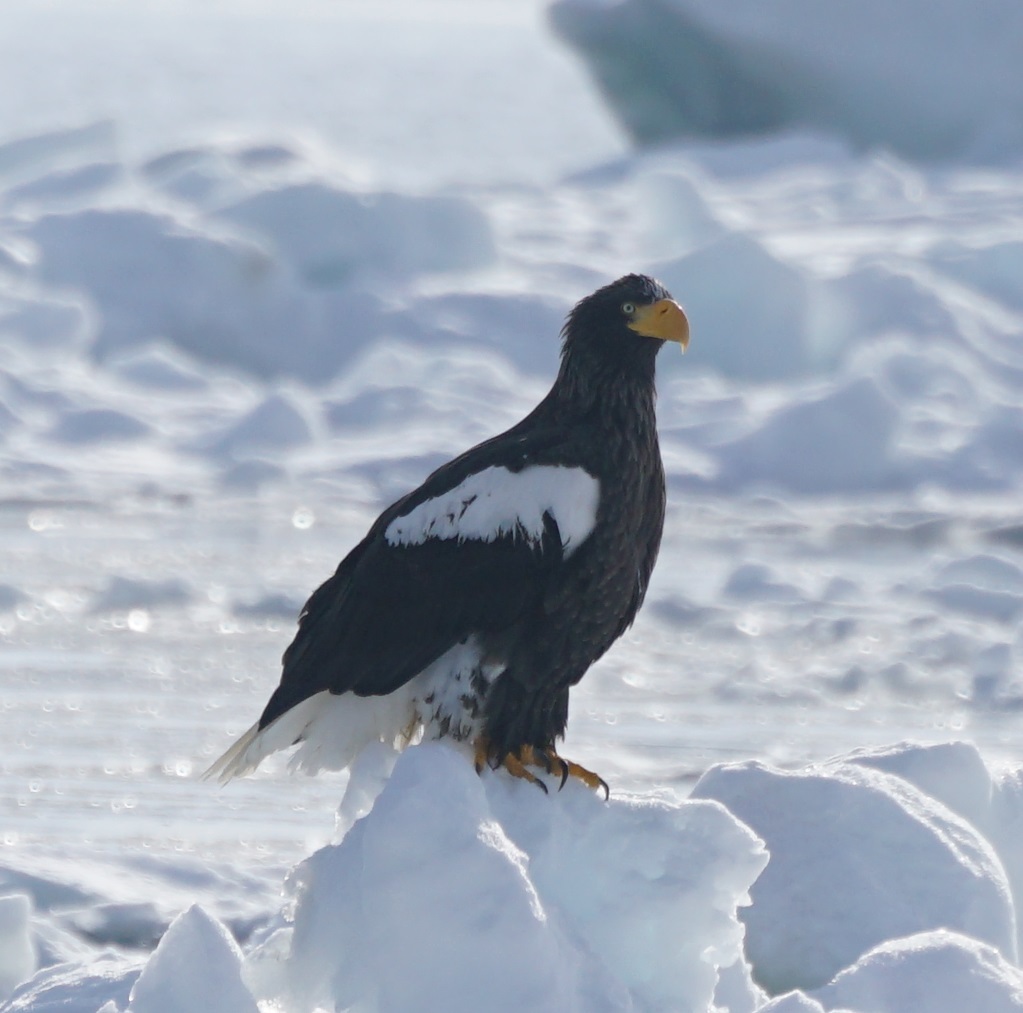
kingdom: Animalia
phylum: Chordata
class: Aves
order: Accipitriformes
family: Accipitridae
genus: Haliaeetus
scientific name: Haliaeetus pelagicus
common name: Steller's sea eagle
